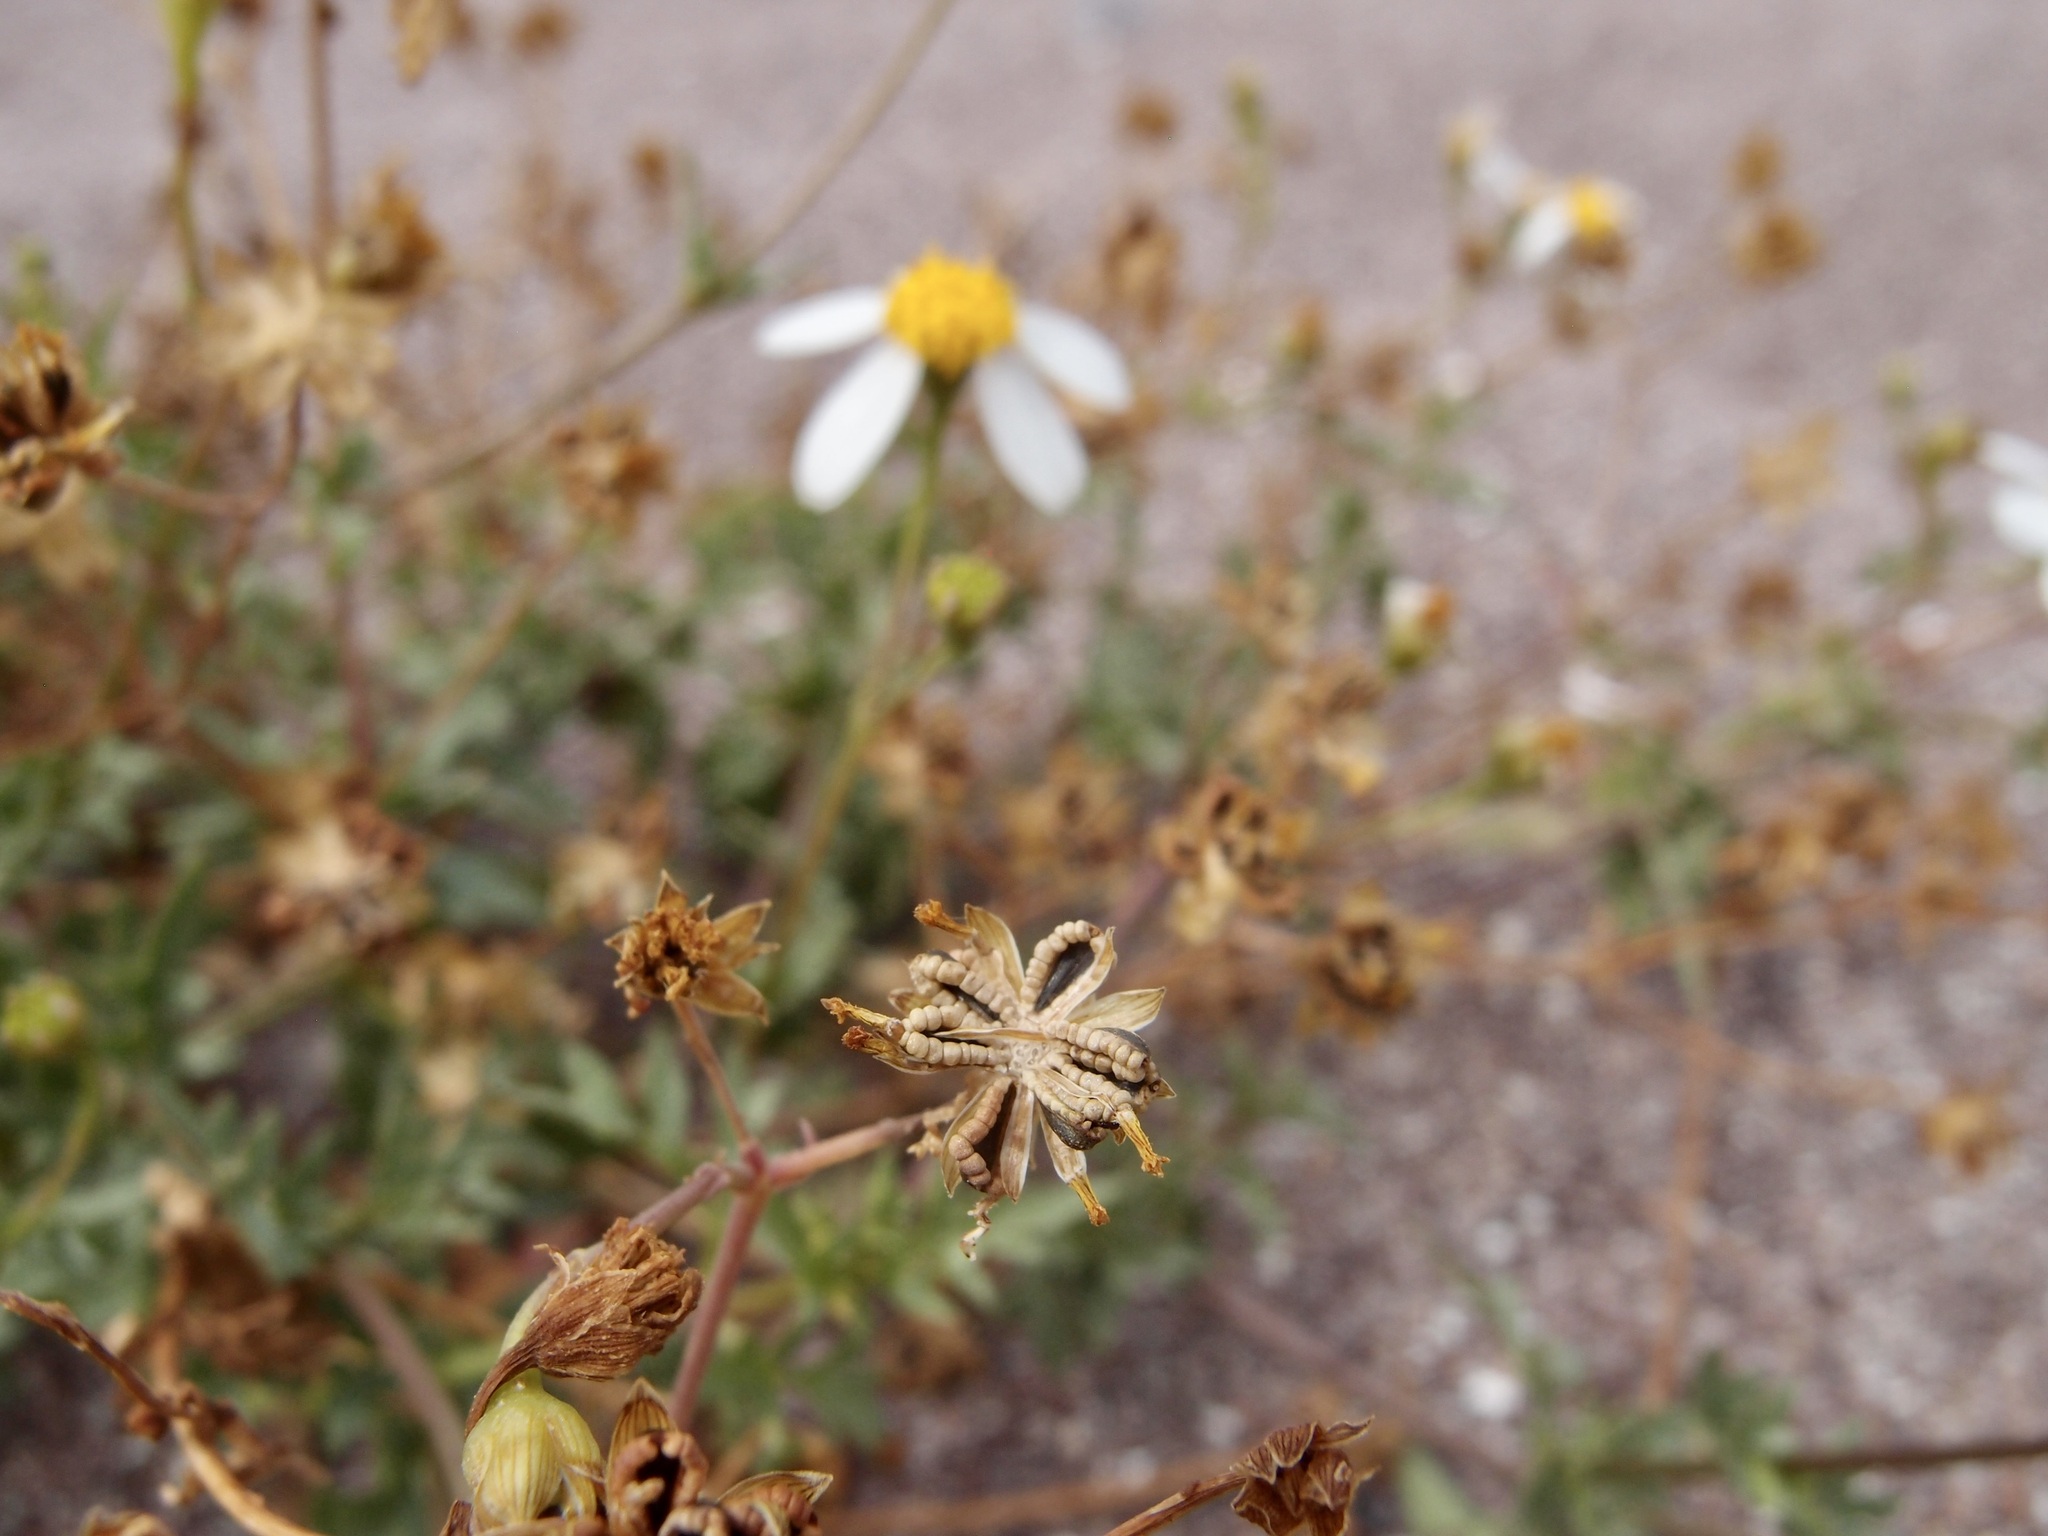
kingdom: Plantae
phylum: Tracheophyta
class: Magnoliopsida
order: Asterales
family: Asteraceae
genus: Coreocarpus
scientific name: Coreocarpus sonoranus
